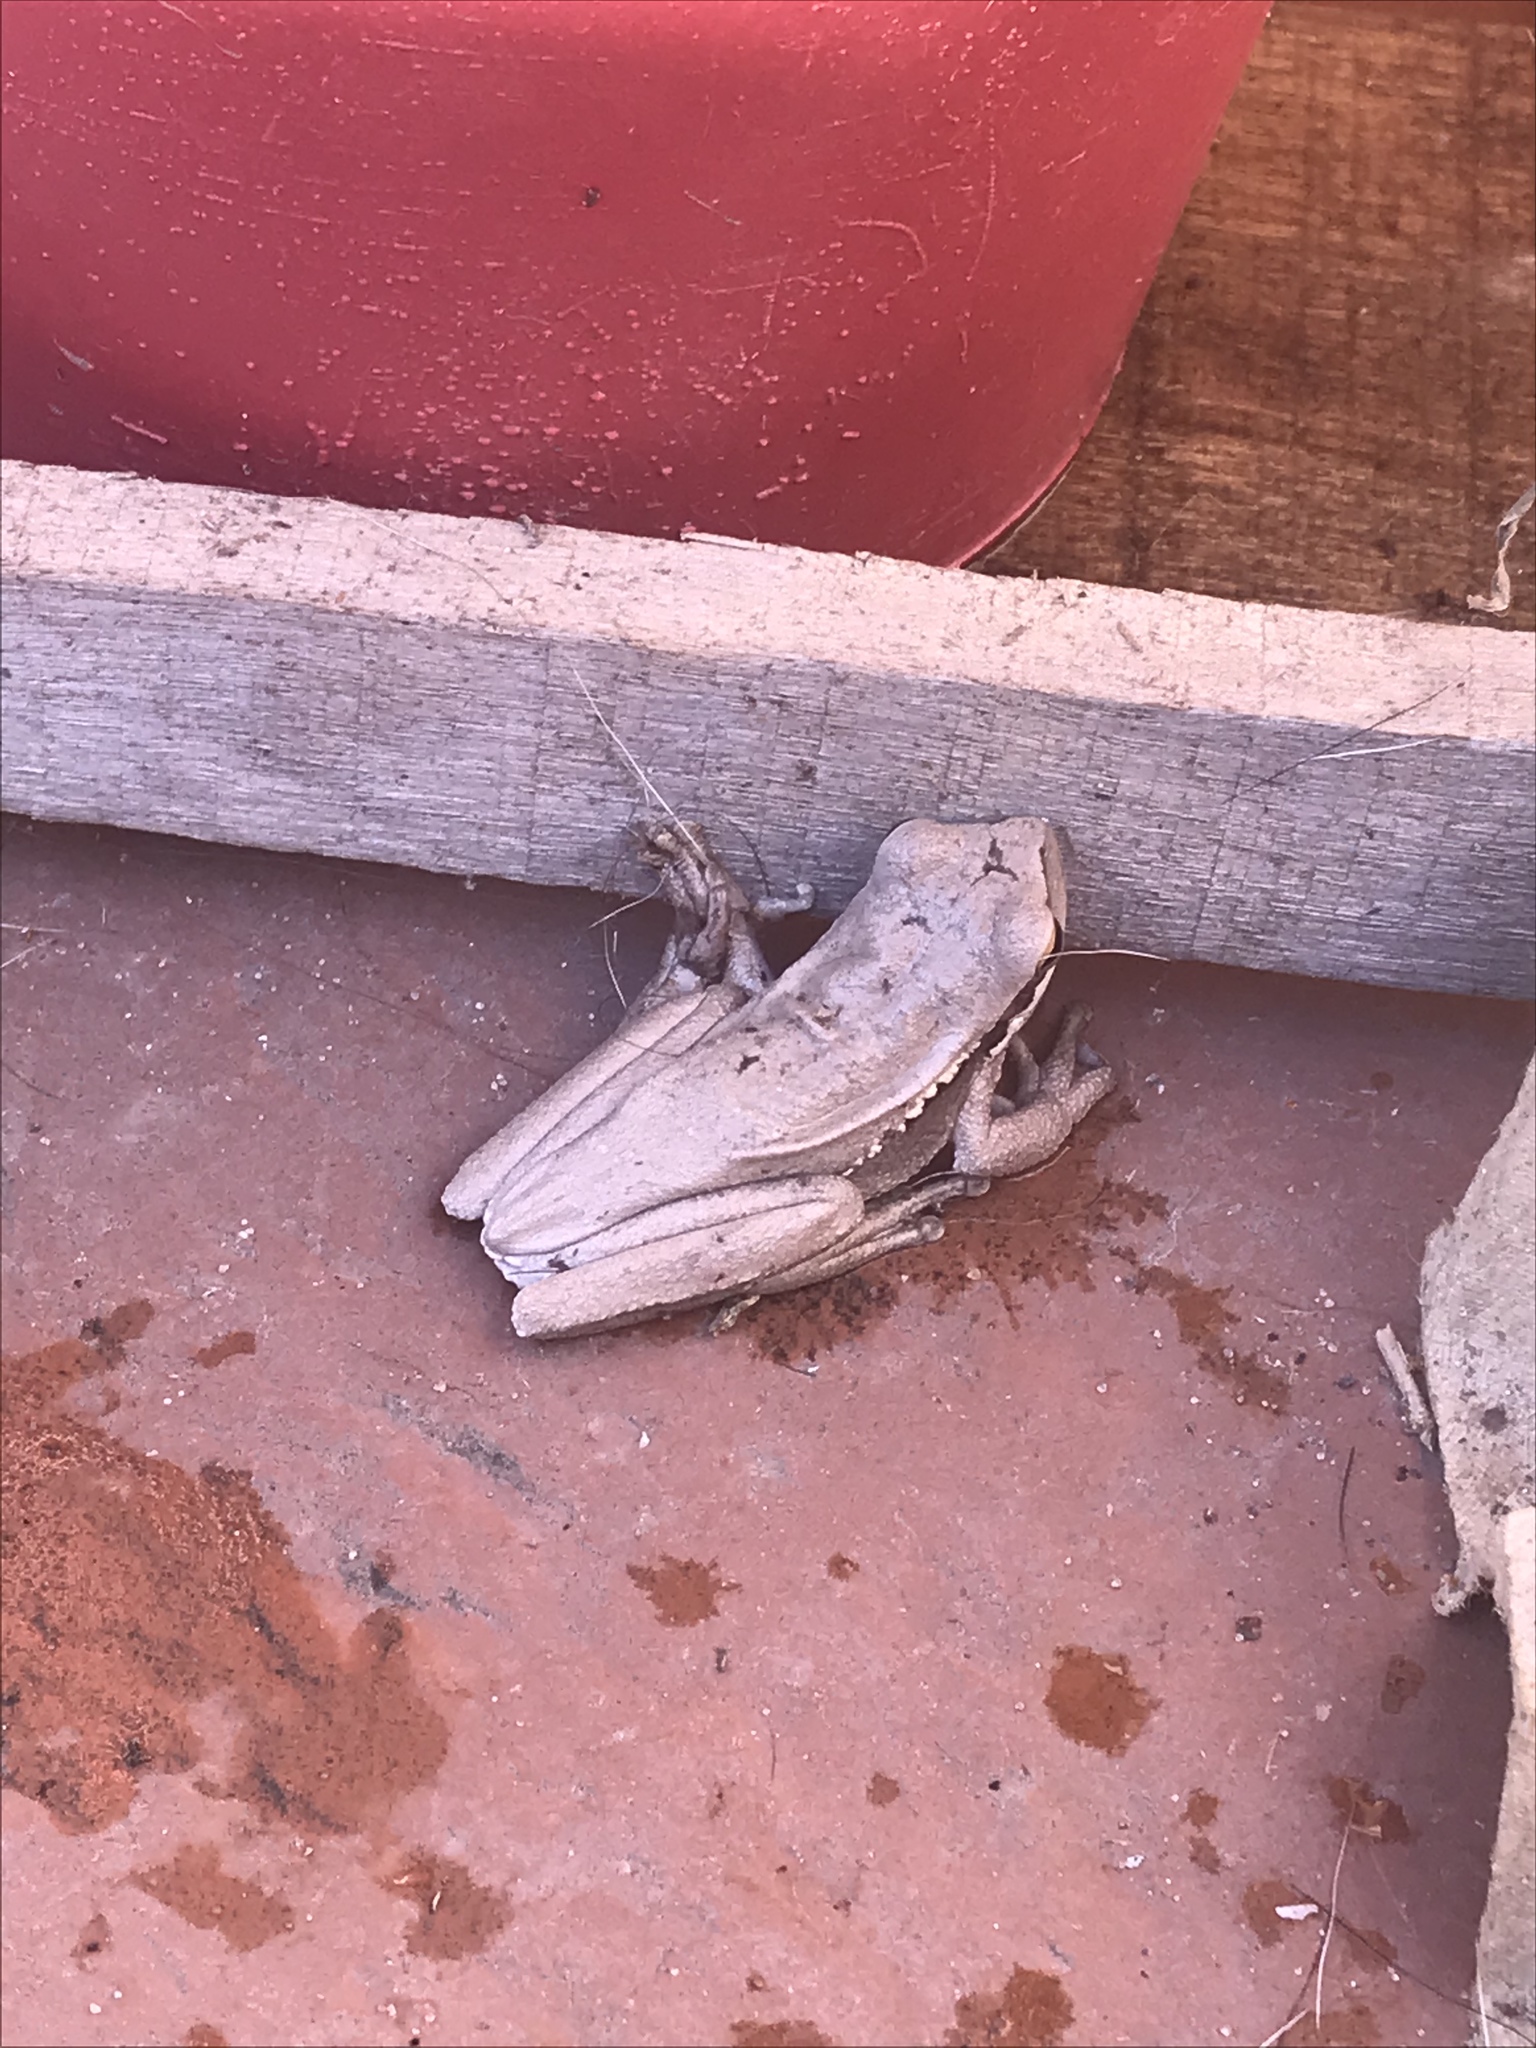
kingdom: Animalia
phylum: Chordata
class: Amphibia
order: Anura
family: Hylidae
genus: Boana
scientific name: Boana pulchella
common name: Montevideo treefrog
